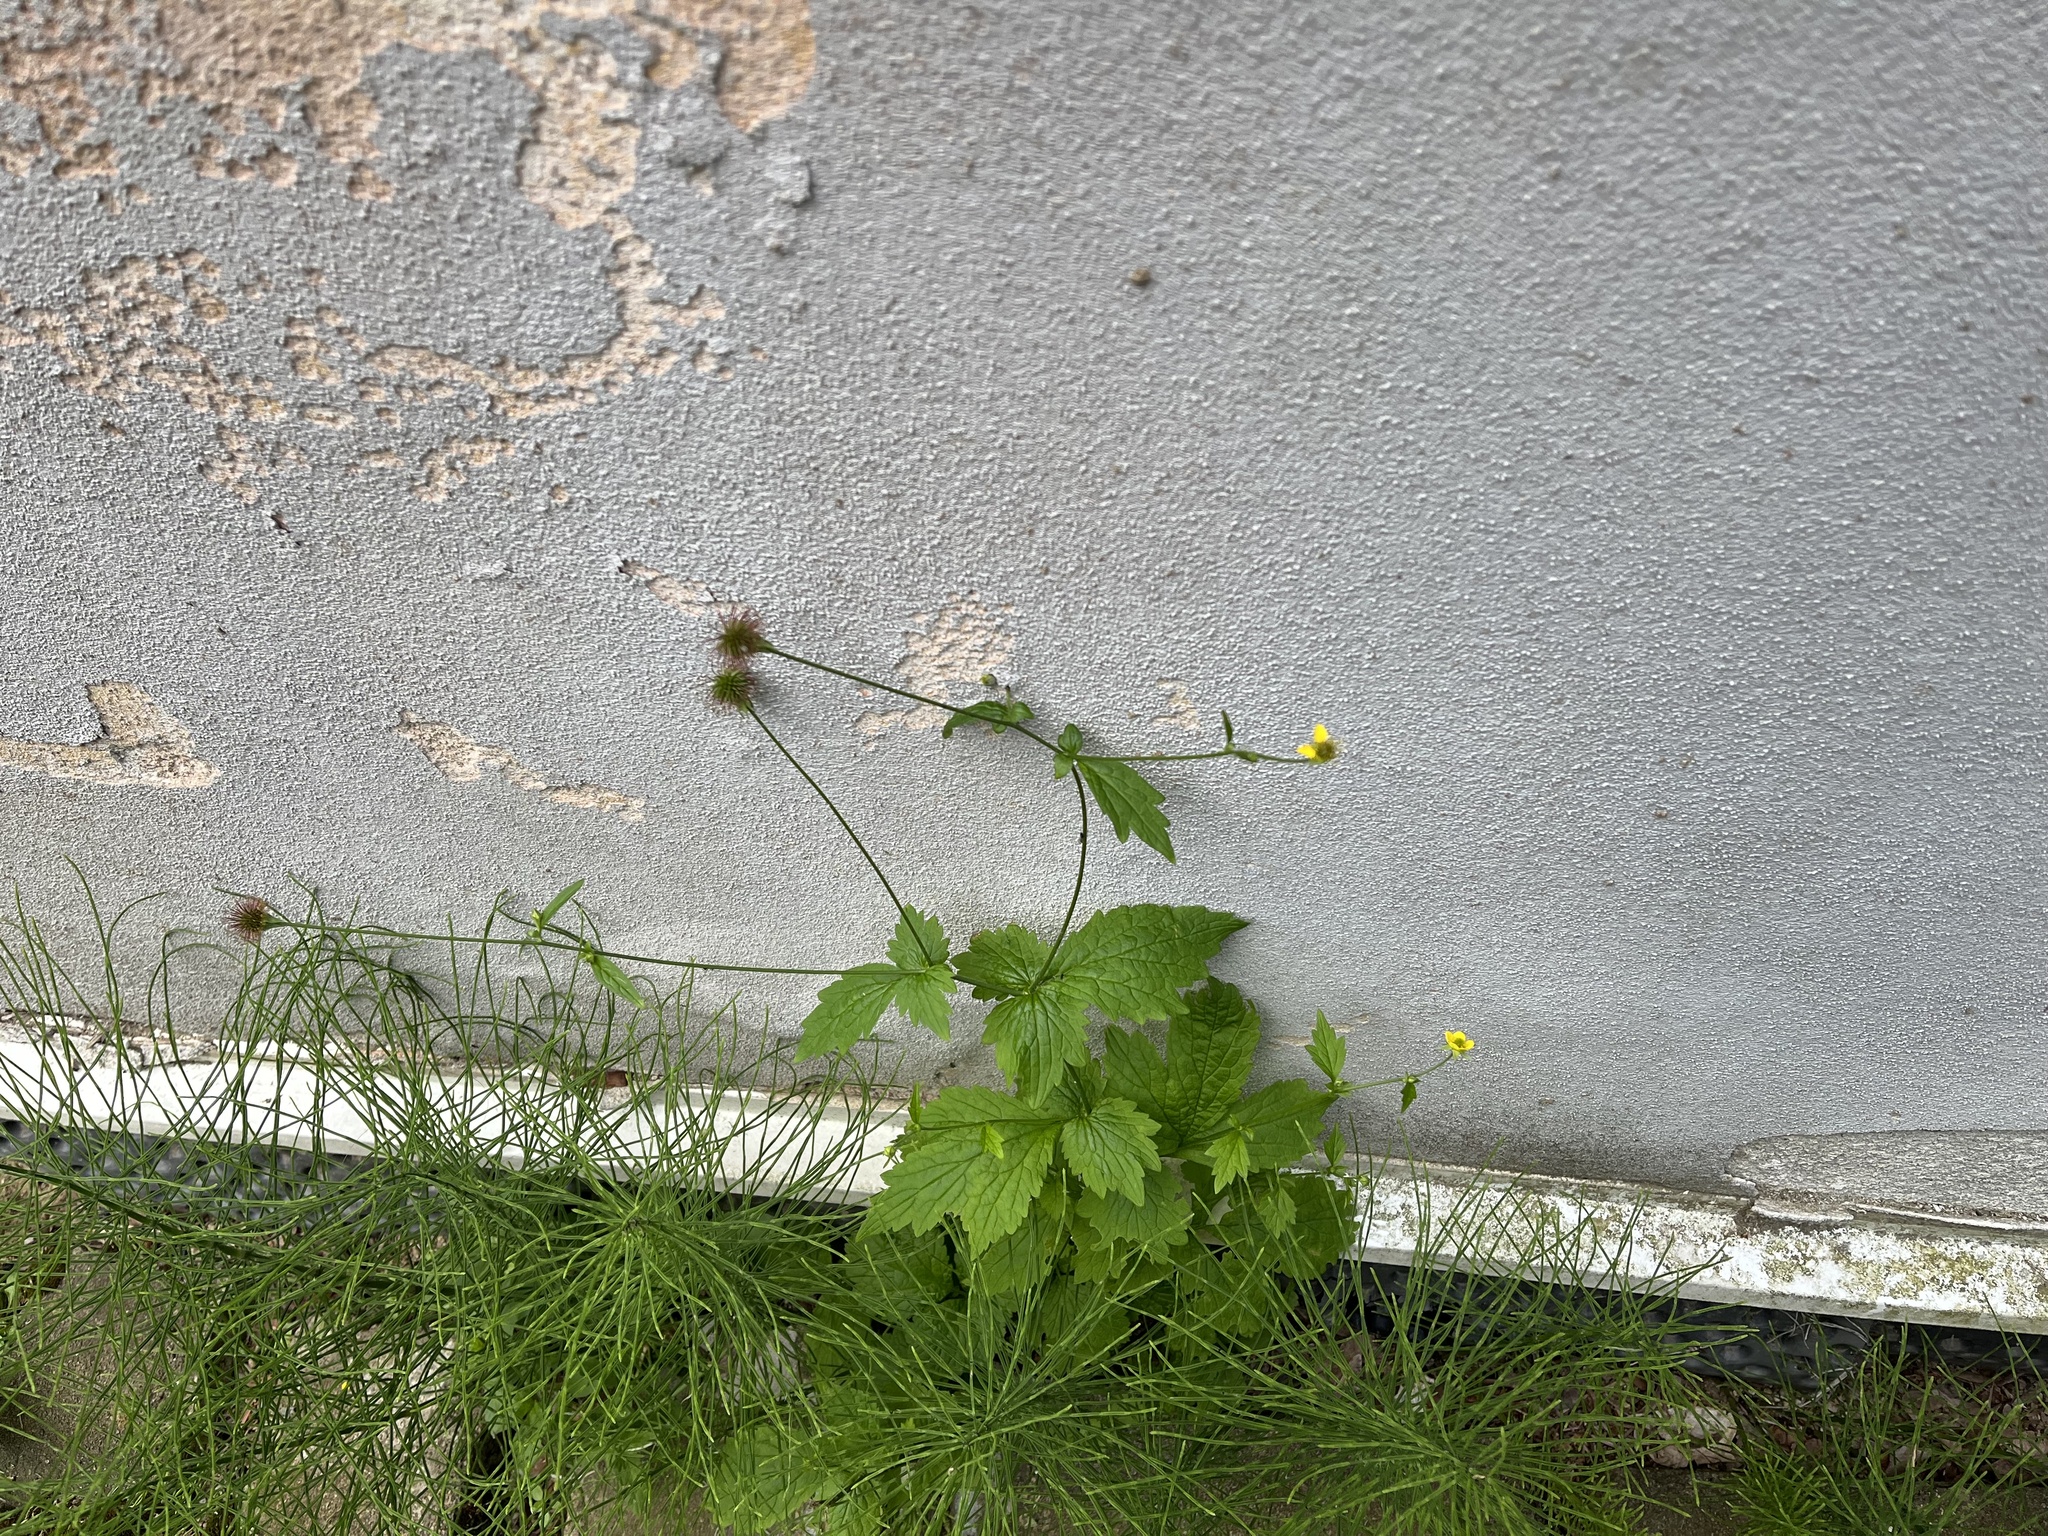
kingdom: Plantae
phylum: Tracheophyta
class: Magnoliopsida
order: Rosales
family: Rosaceae
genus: Geum
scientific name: Geum urbanum
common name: Wood avens
